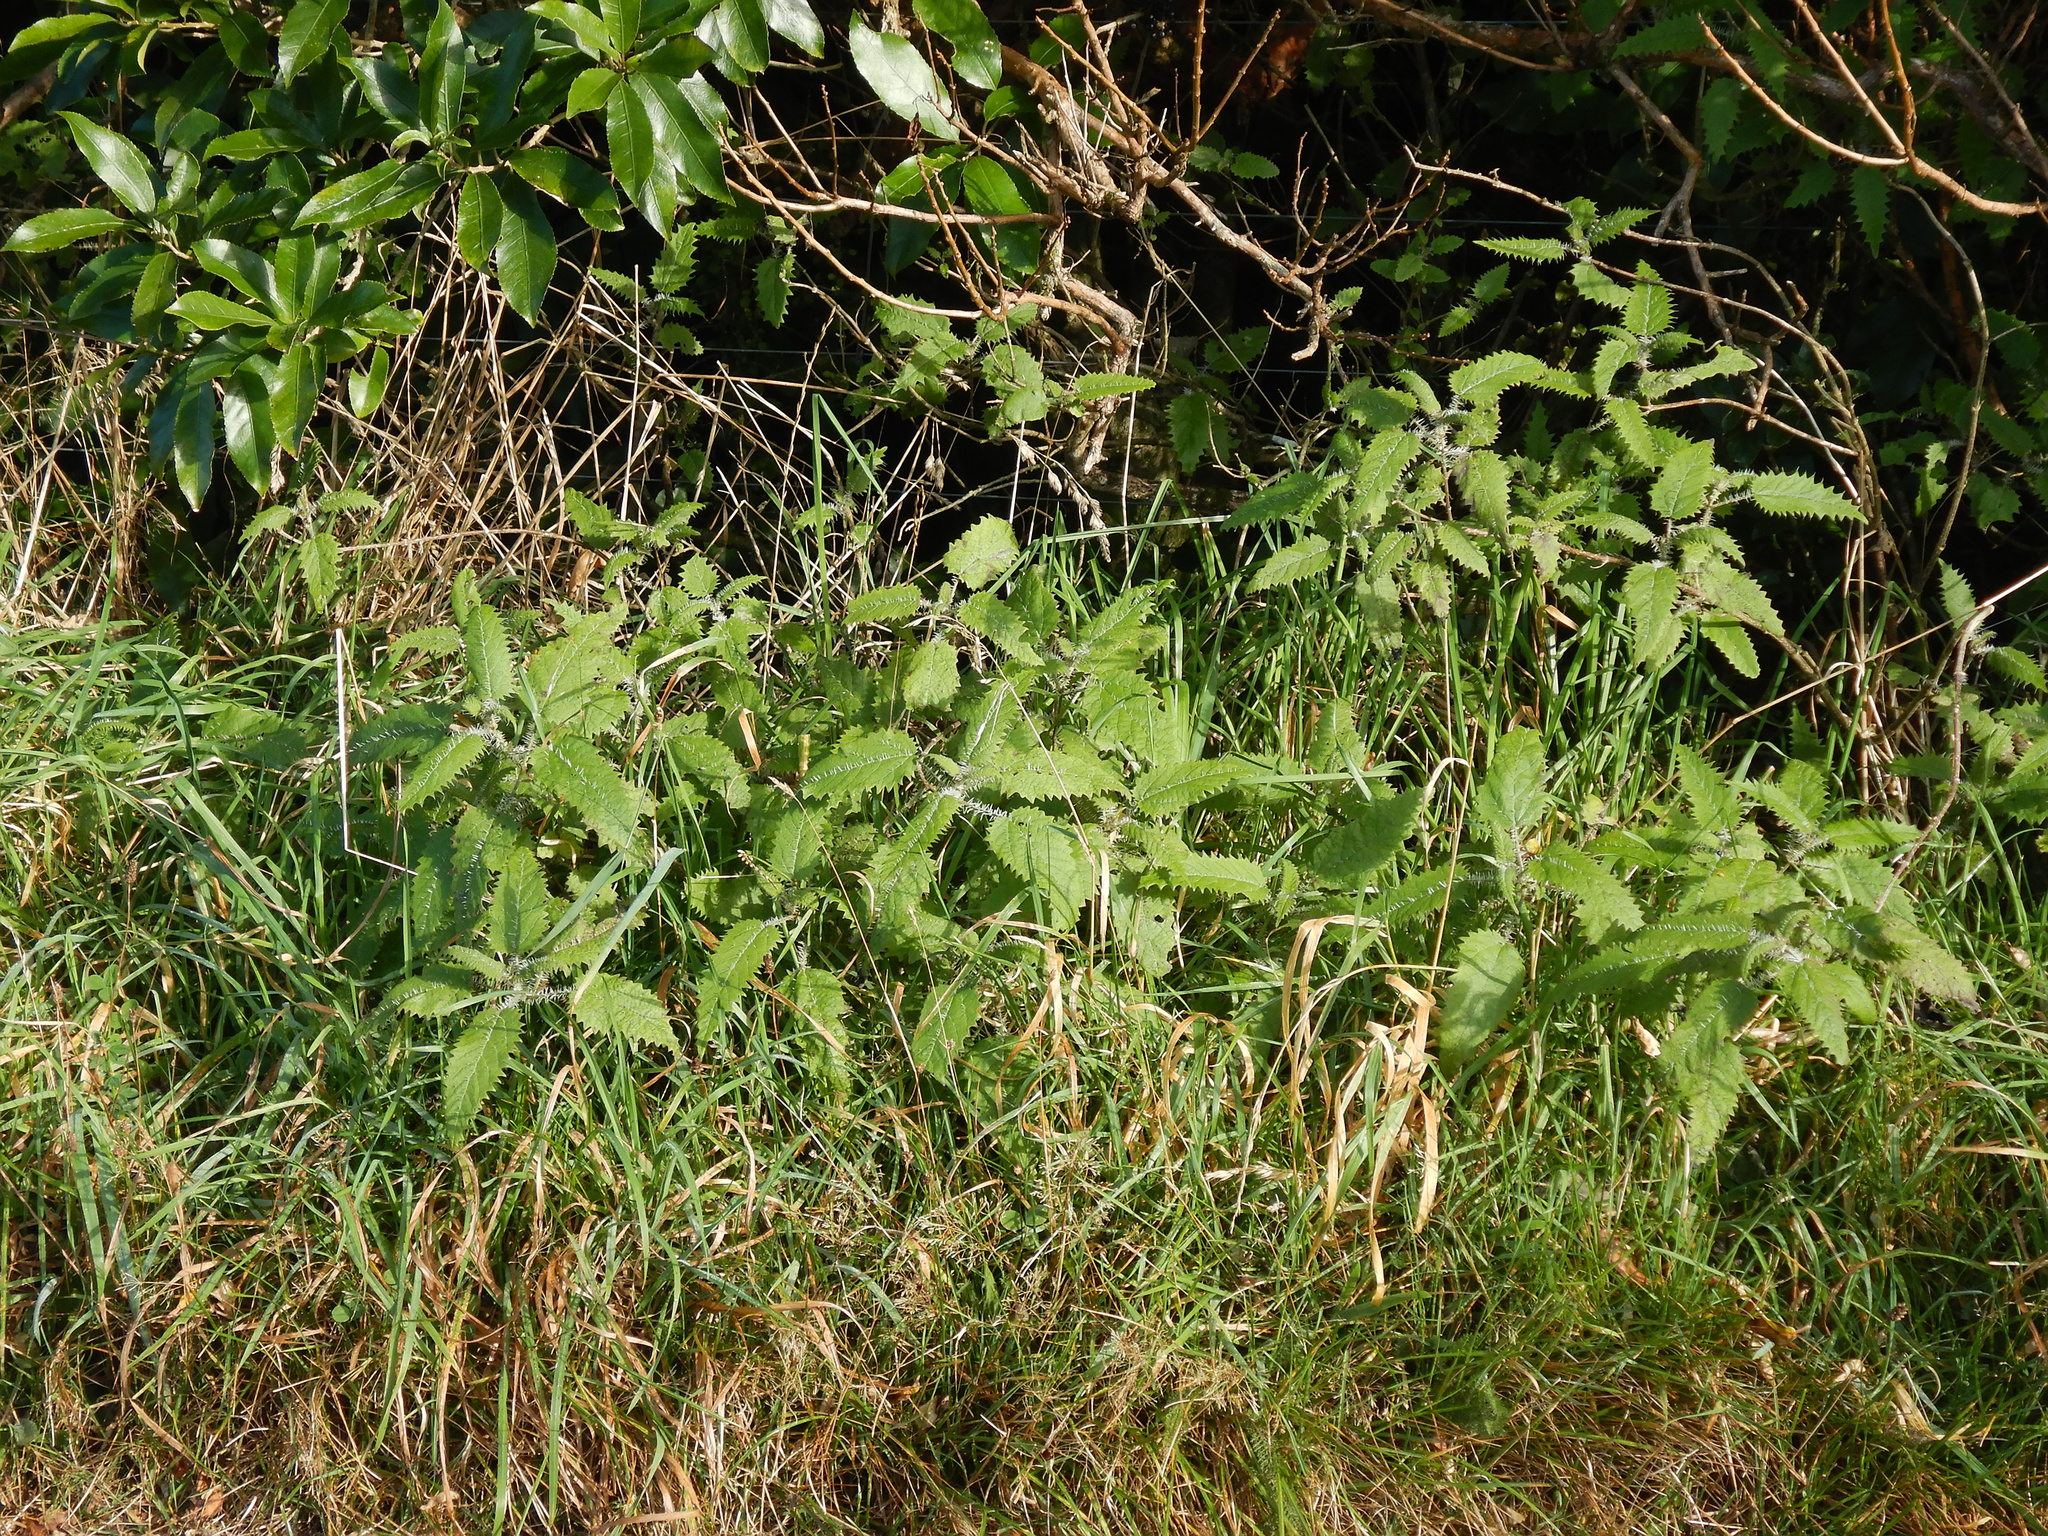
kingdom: Plantae
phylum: Tracheophyta
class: Magnoliopsida
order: Rosales
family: Urticaceae
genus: Urtica
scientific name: Urtica ferox
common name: Tree nettle
